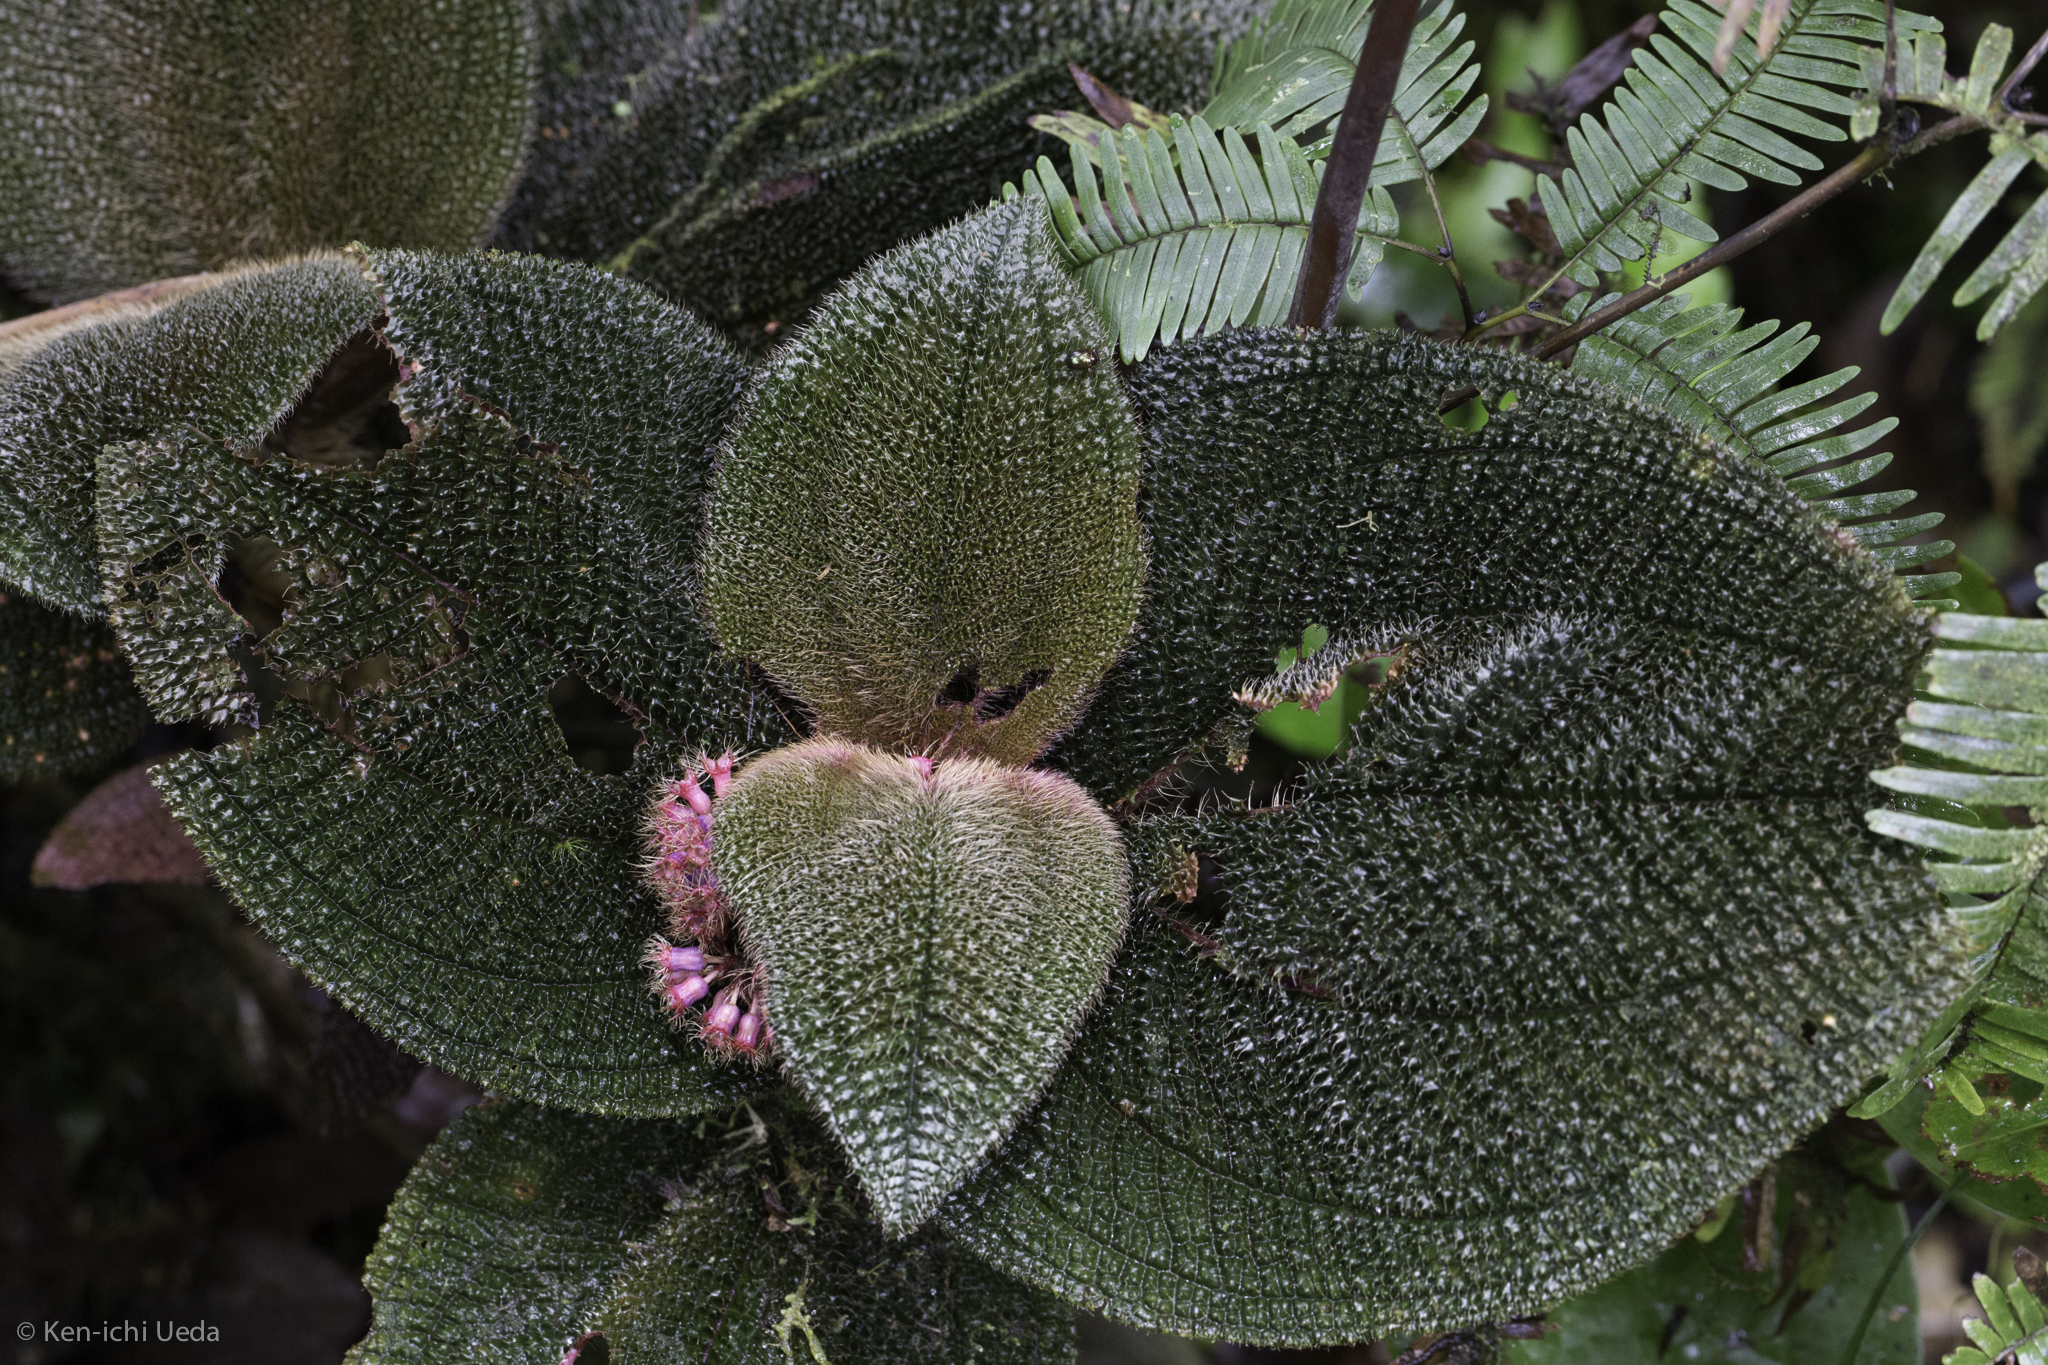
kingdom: Plantae
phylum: Tracheophyta
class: Magnoliopsida
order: Myrtales
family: Melastomataceae
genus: Miconia
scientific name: Miconia reflexa
